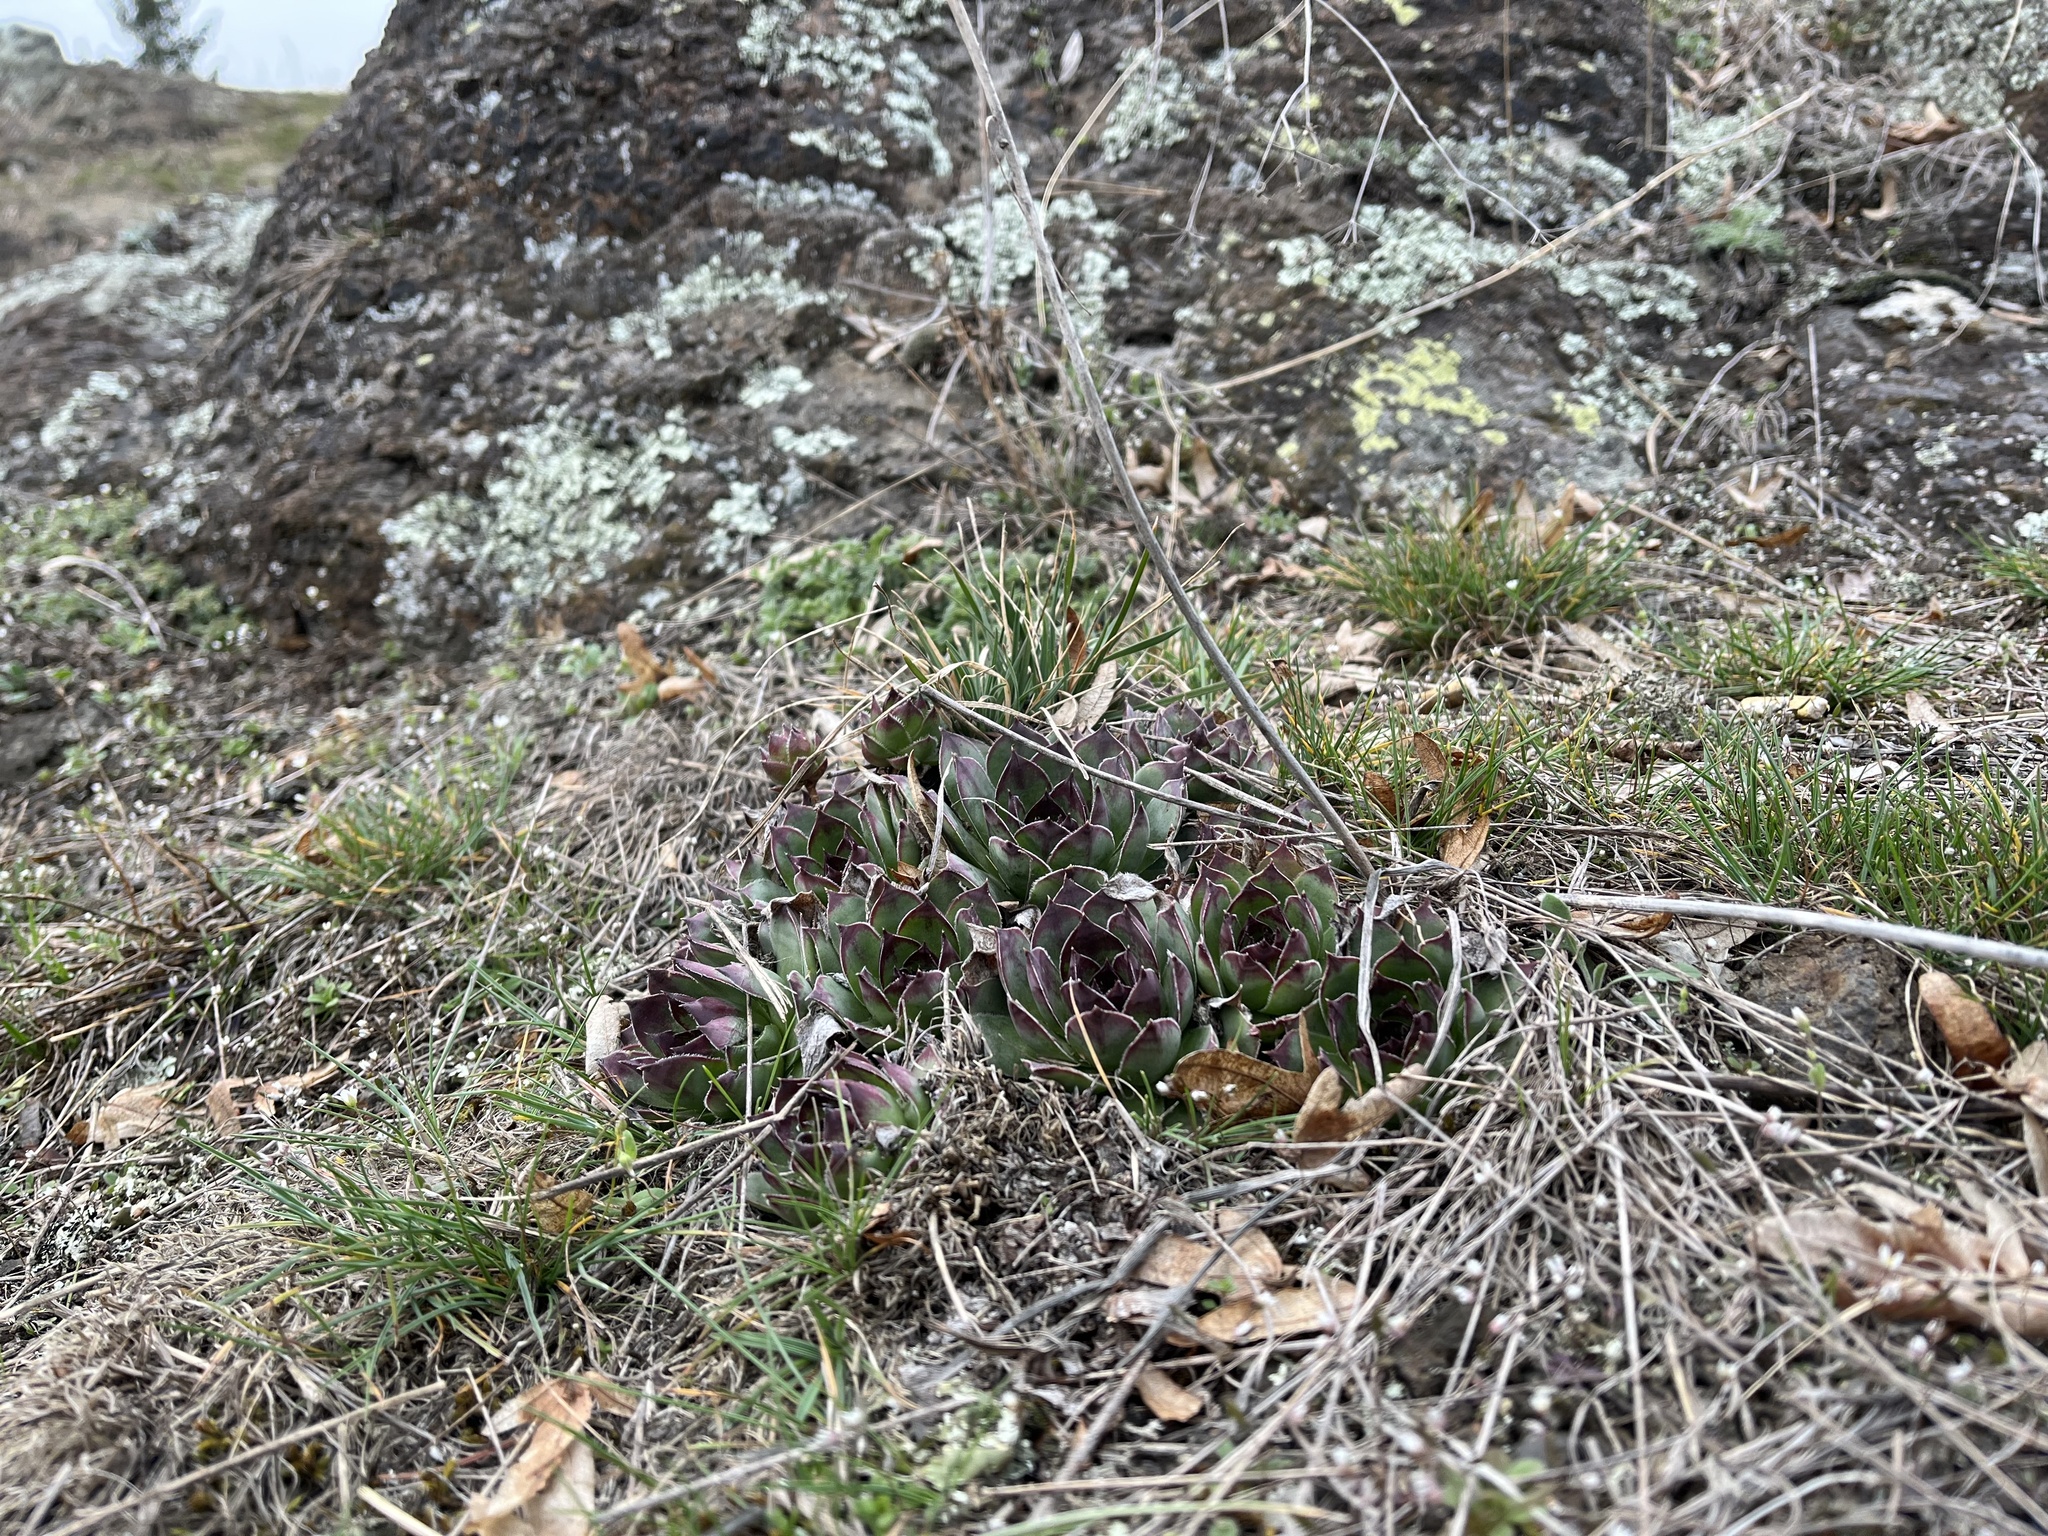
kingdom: Plantae
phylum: Tracheophyta
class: Magnoliopsida
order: Saxifragales
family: Crassulaceae
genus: Sempervivum
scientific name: Sempervivum tectorum
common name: House-leek
